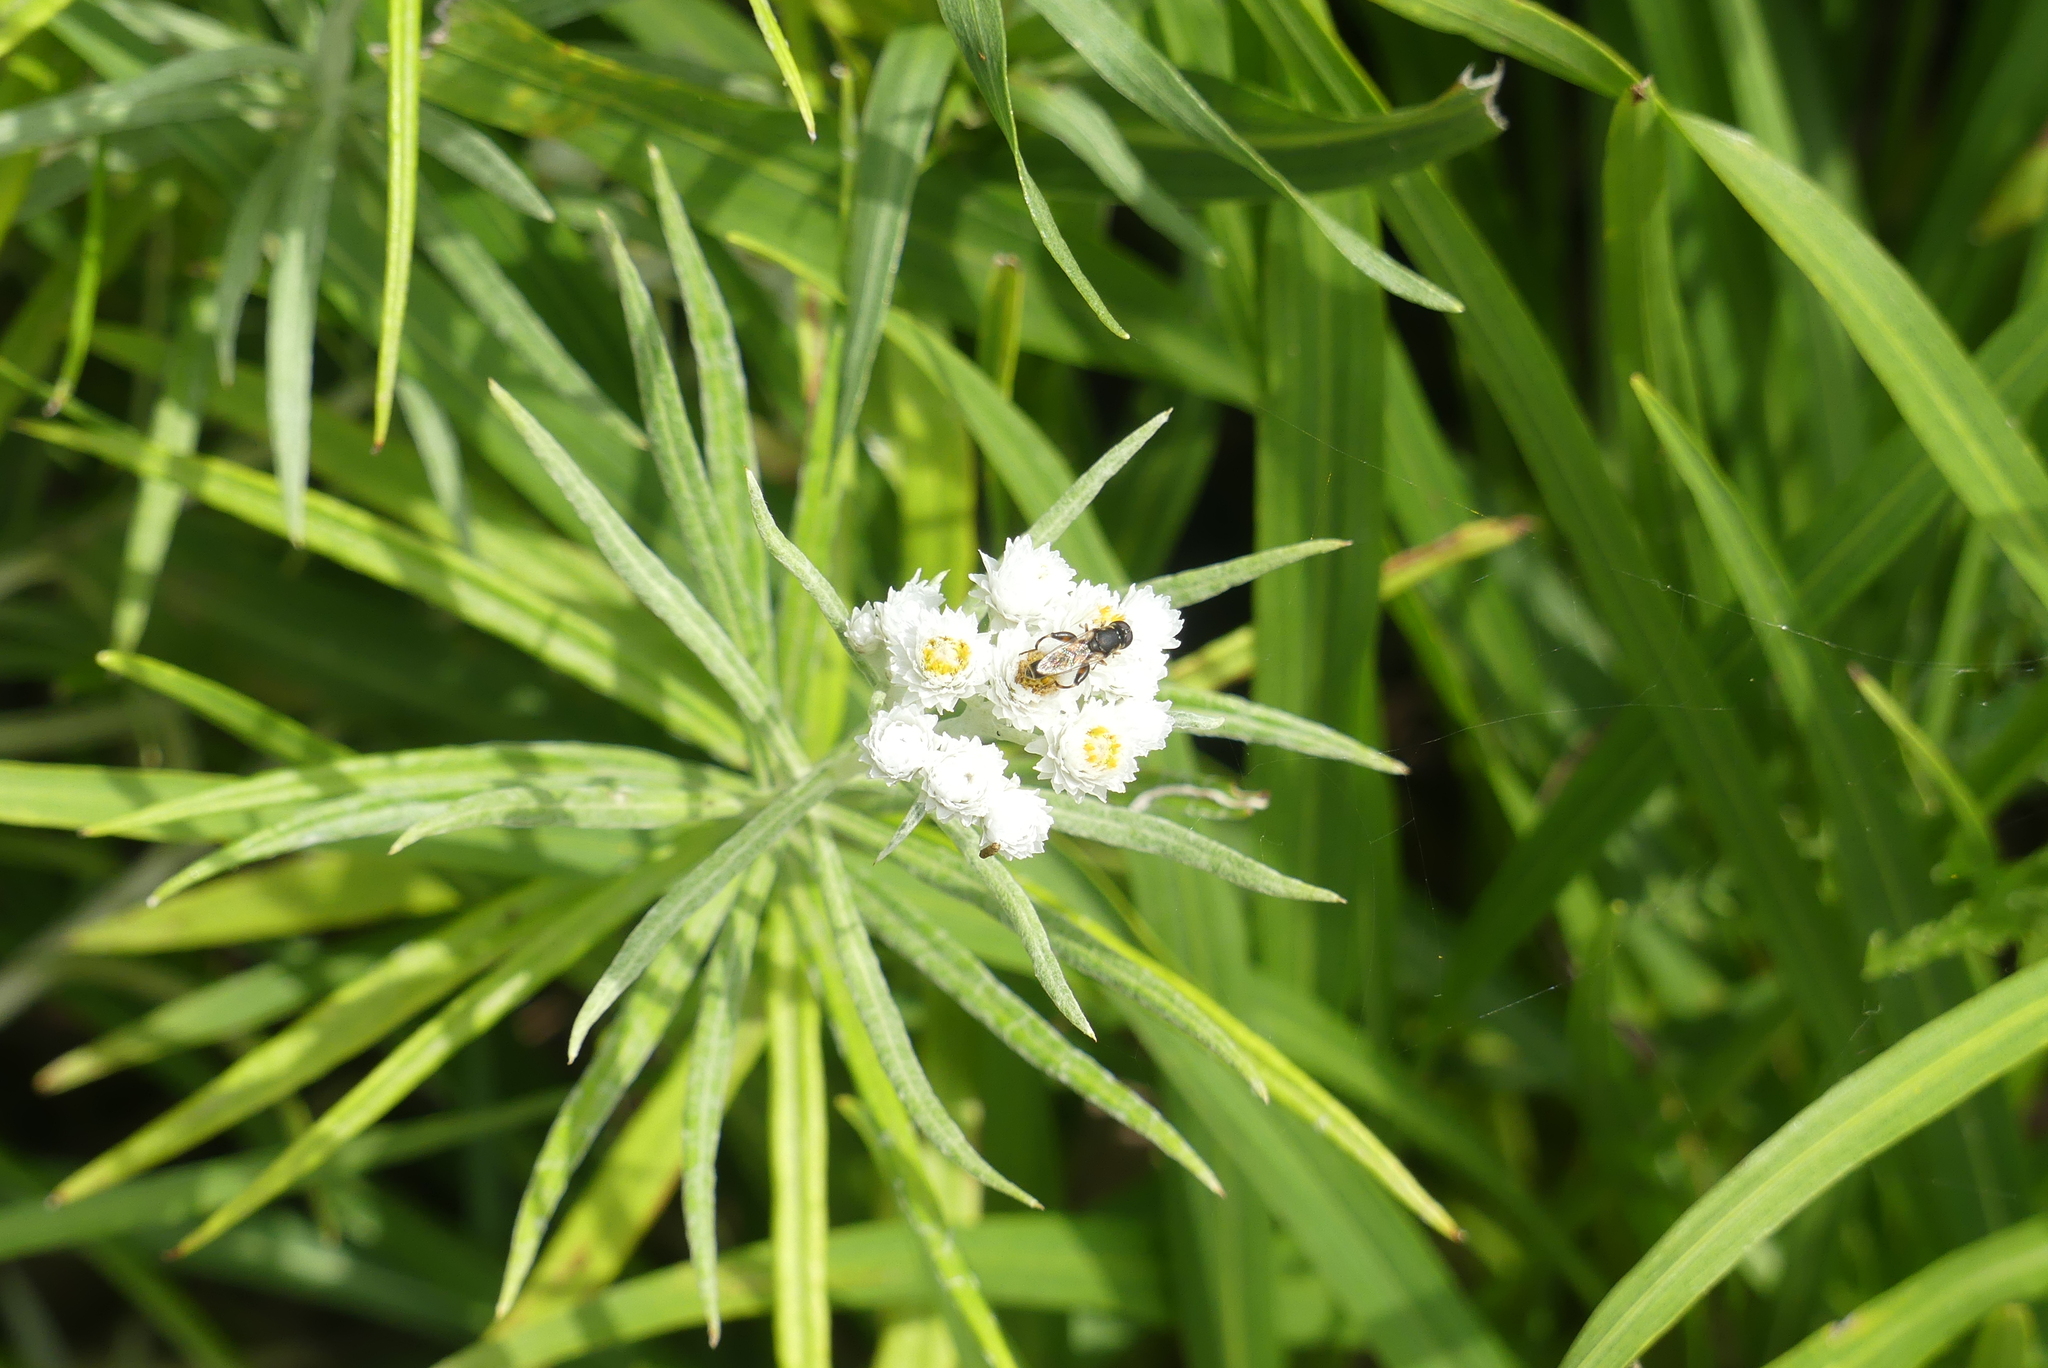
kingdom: Animalia
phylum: Arthropoda
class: Insecta
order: Diptera
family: Syrphidae
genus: Syritta
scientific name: Syritta pipiens
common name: Hover fly
